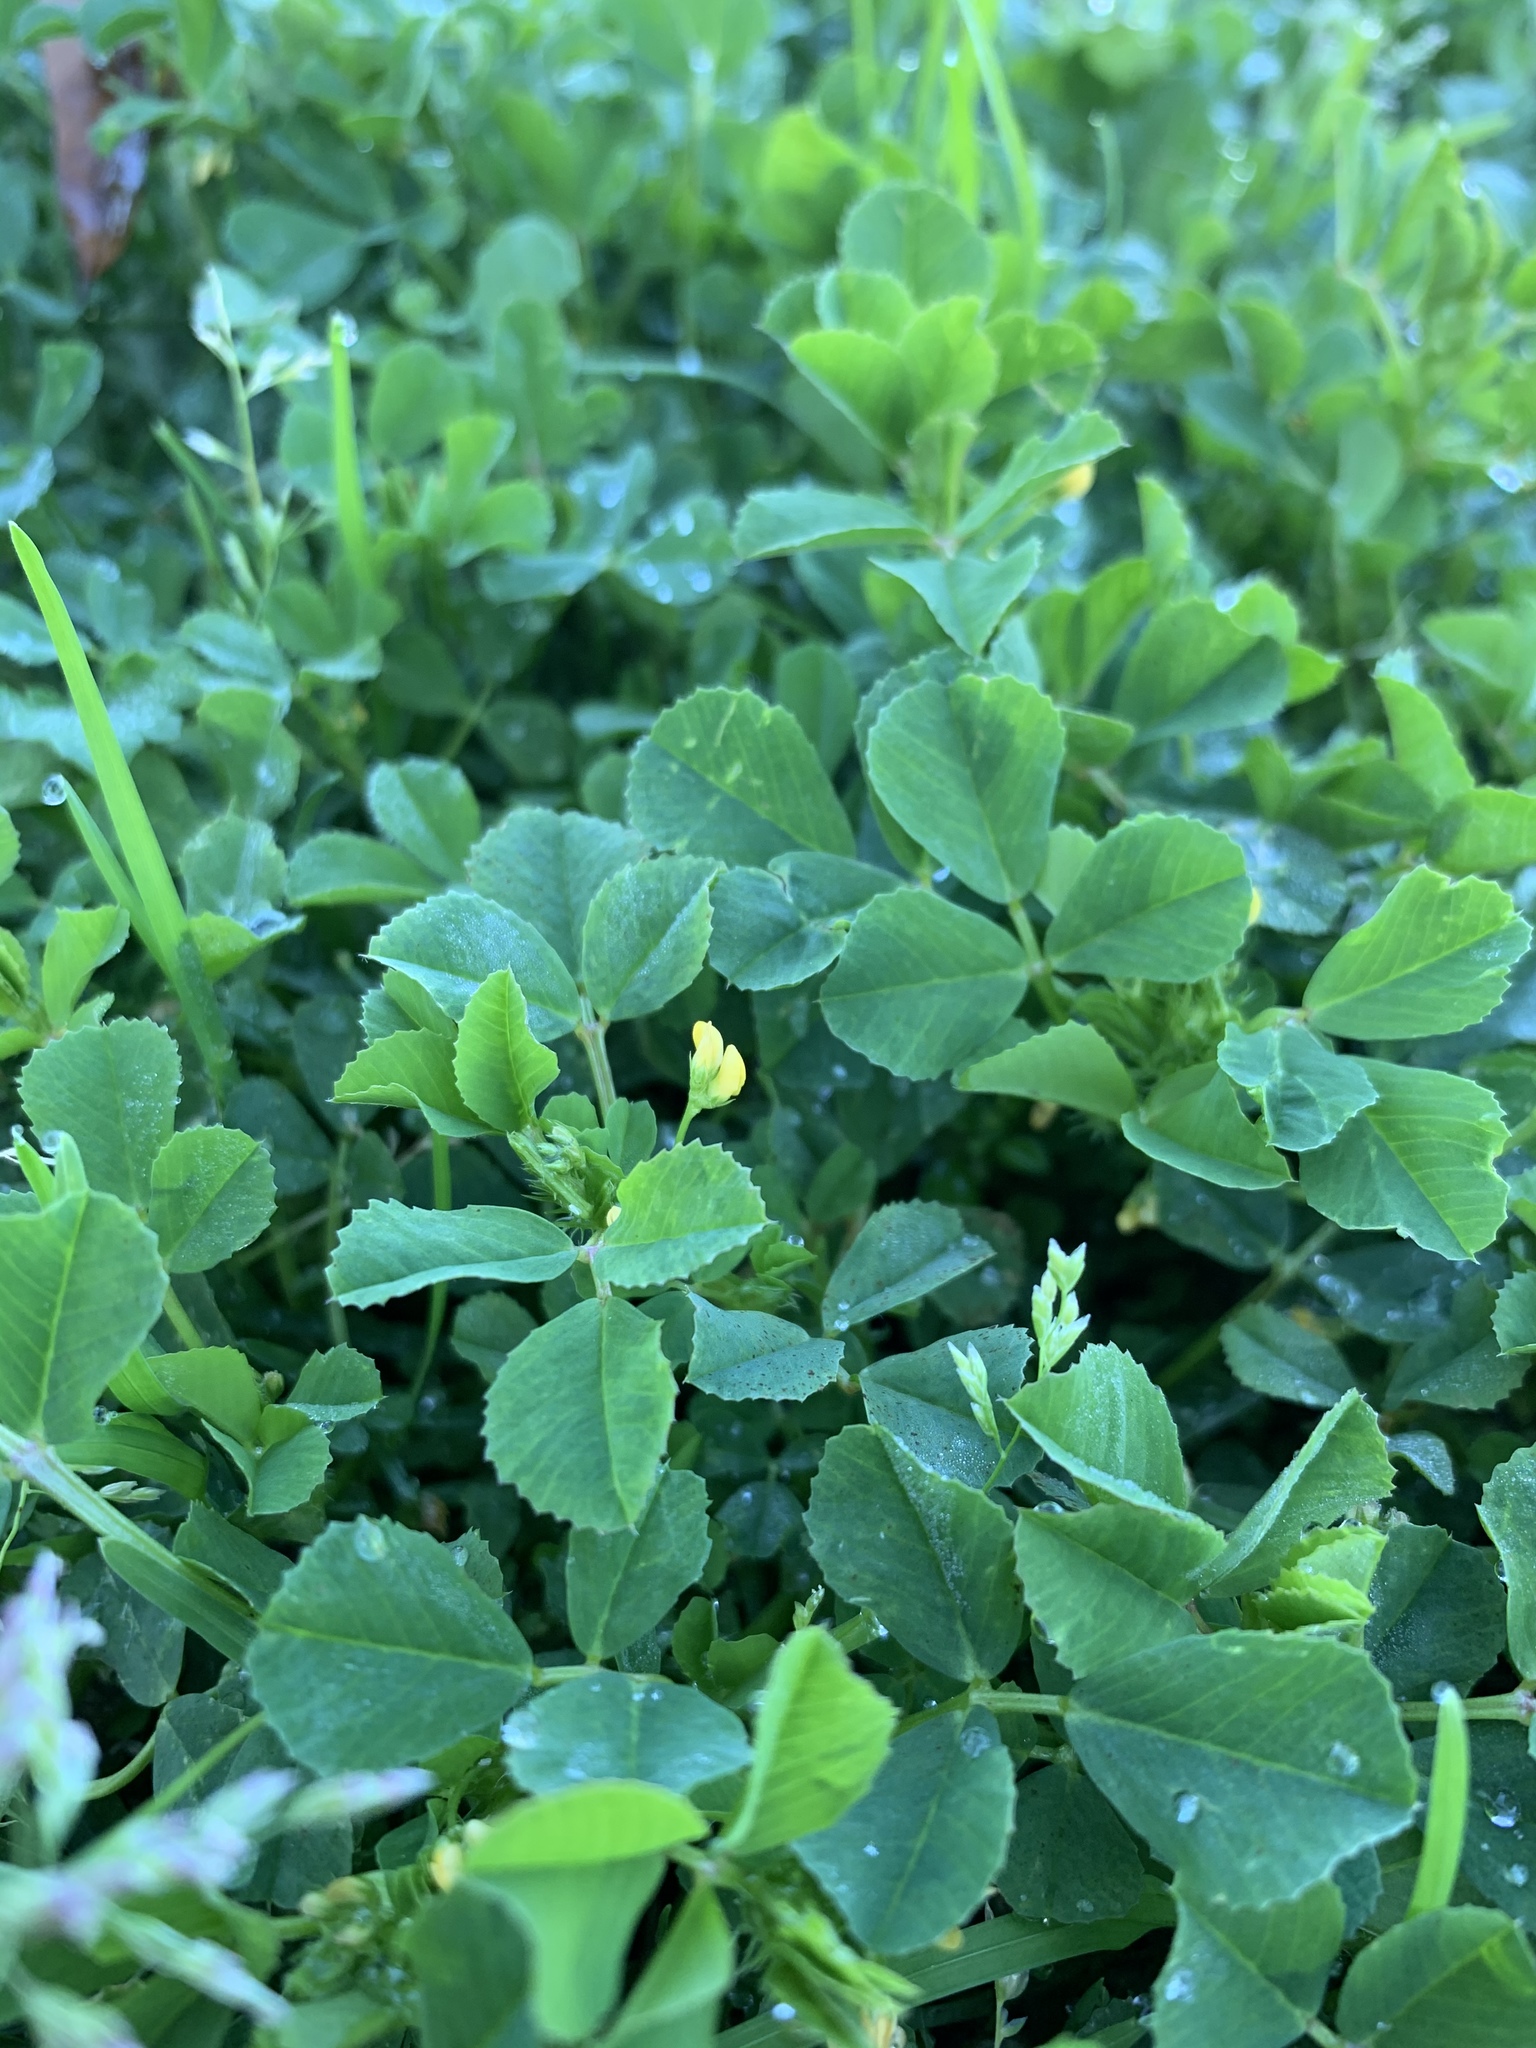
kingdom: Plantae
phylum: Tracheophyta
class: Magnoliopsida
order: Fabales
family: Fabaceae
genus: Medicago
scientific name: Medicago polymorpha
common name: Burclover
